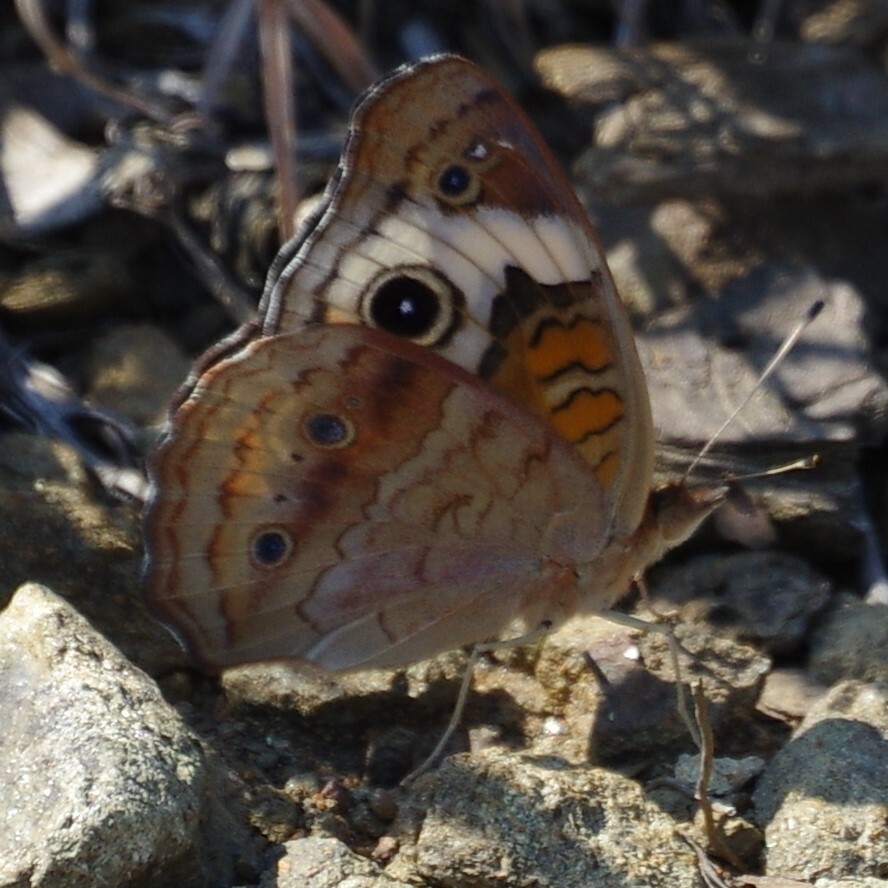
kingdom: Animalia
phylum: Arthropoda
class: Insecta
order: Lepidoptera
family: Nymphalidae
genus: Junonia
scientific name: Junonia coenia
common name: Common buckeye
